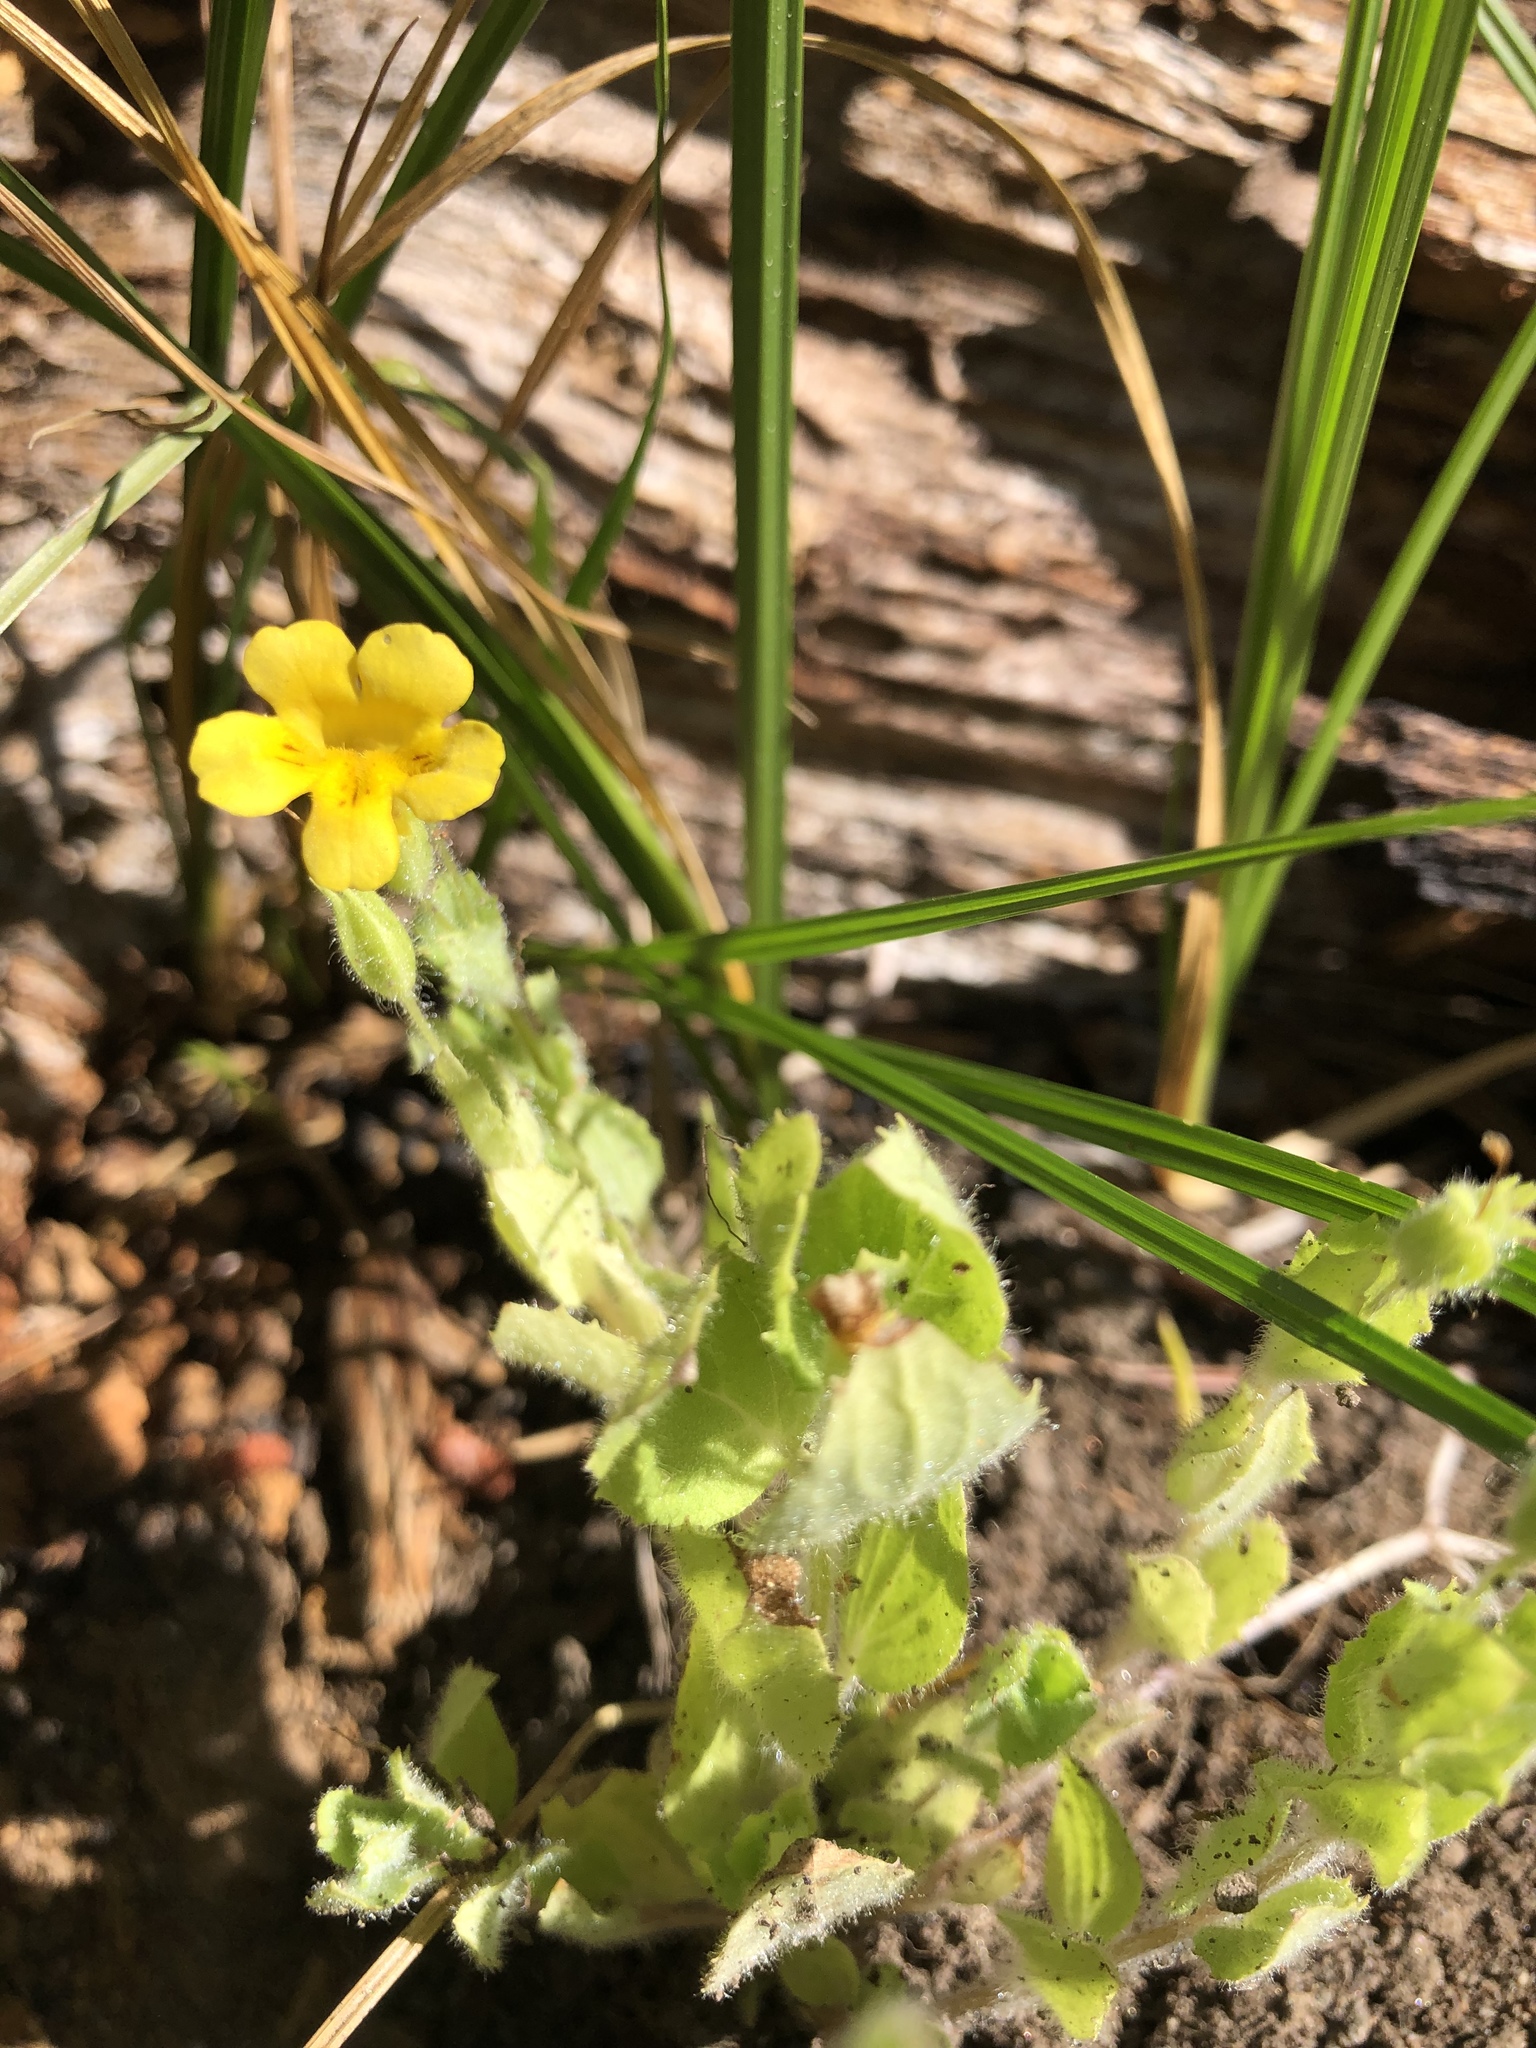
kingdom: Plantae
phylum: Tracheophyta
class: Magnoliopsida
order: Lamiales
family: Phrymaceae
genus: Erythranthe
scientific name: Erythranthe moschata
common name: Muskflower
